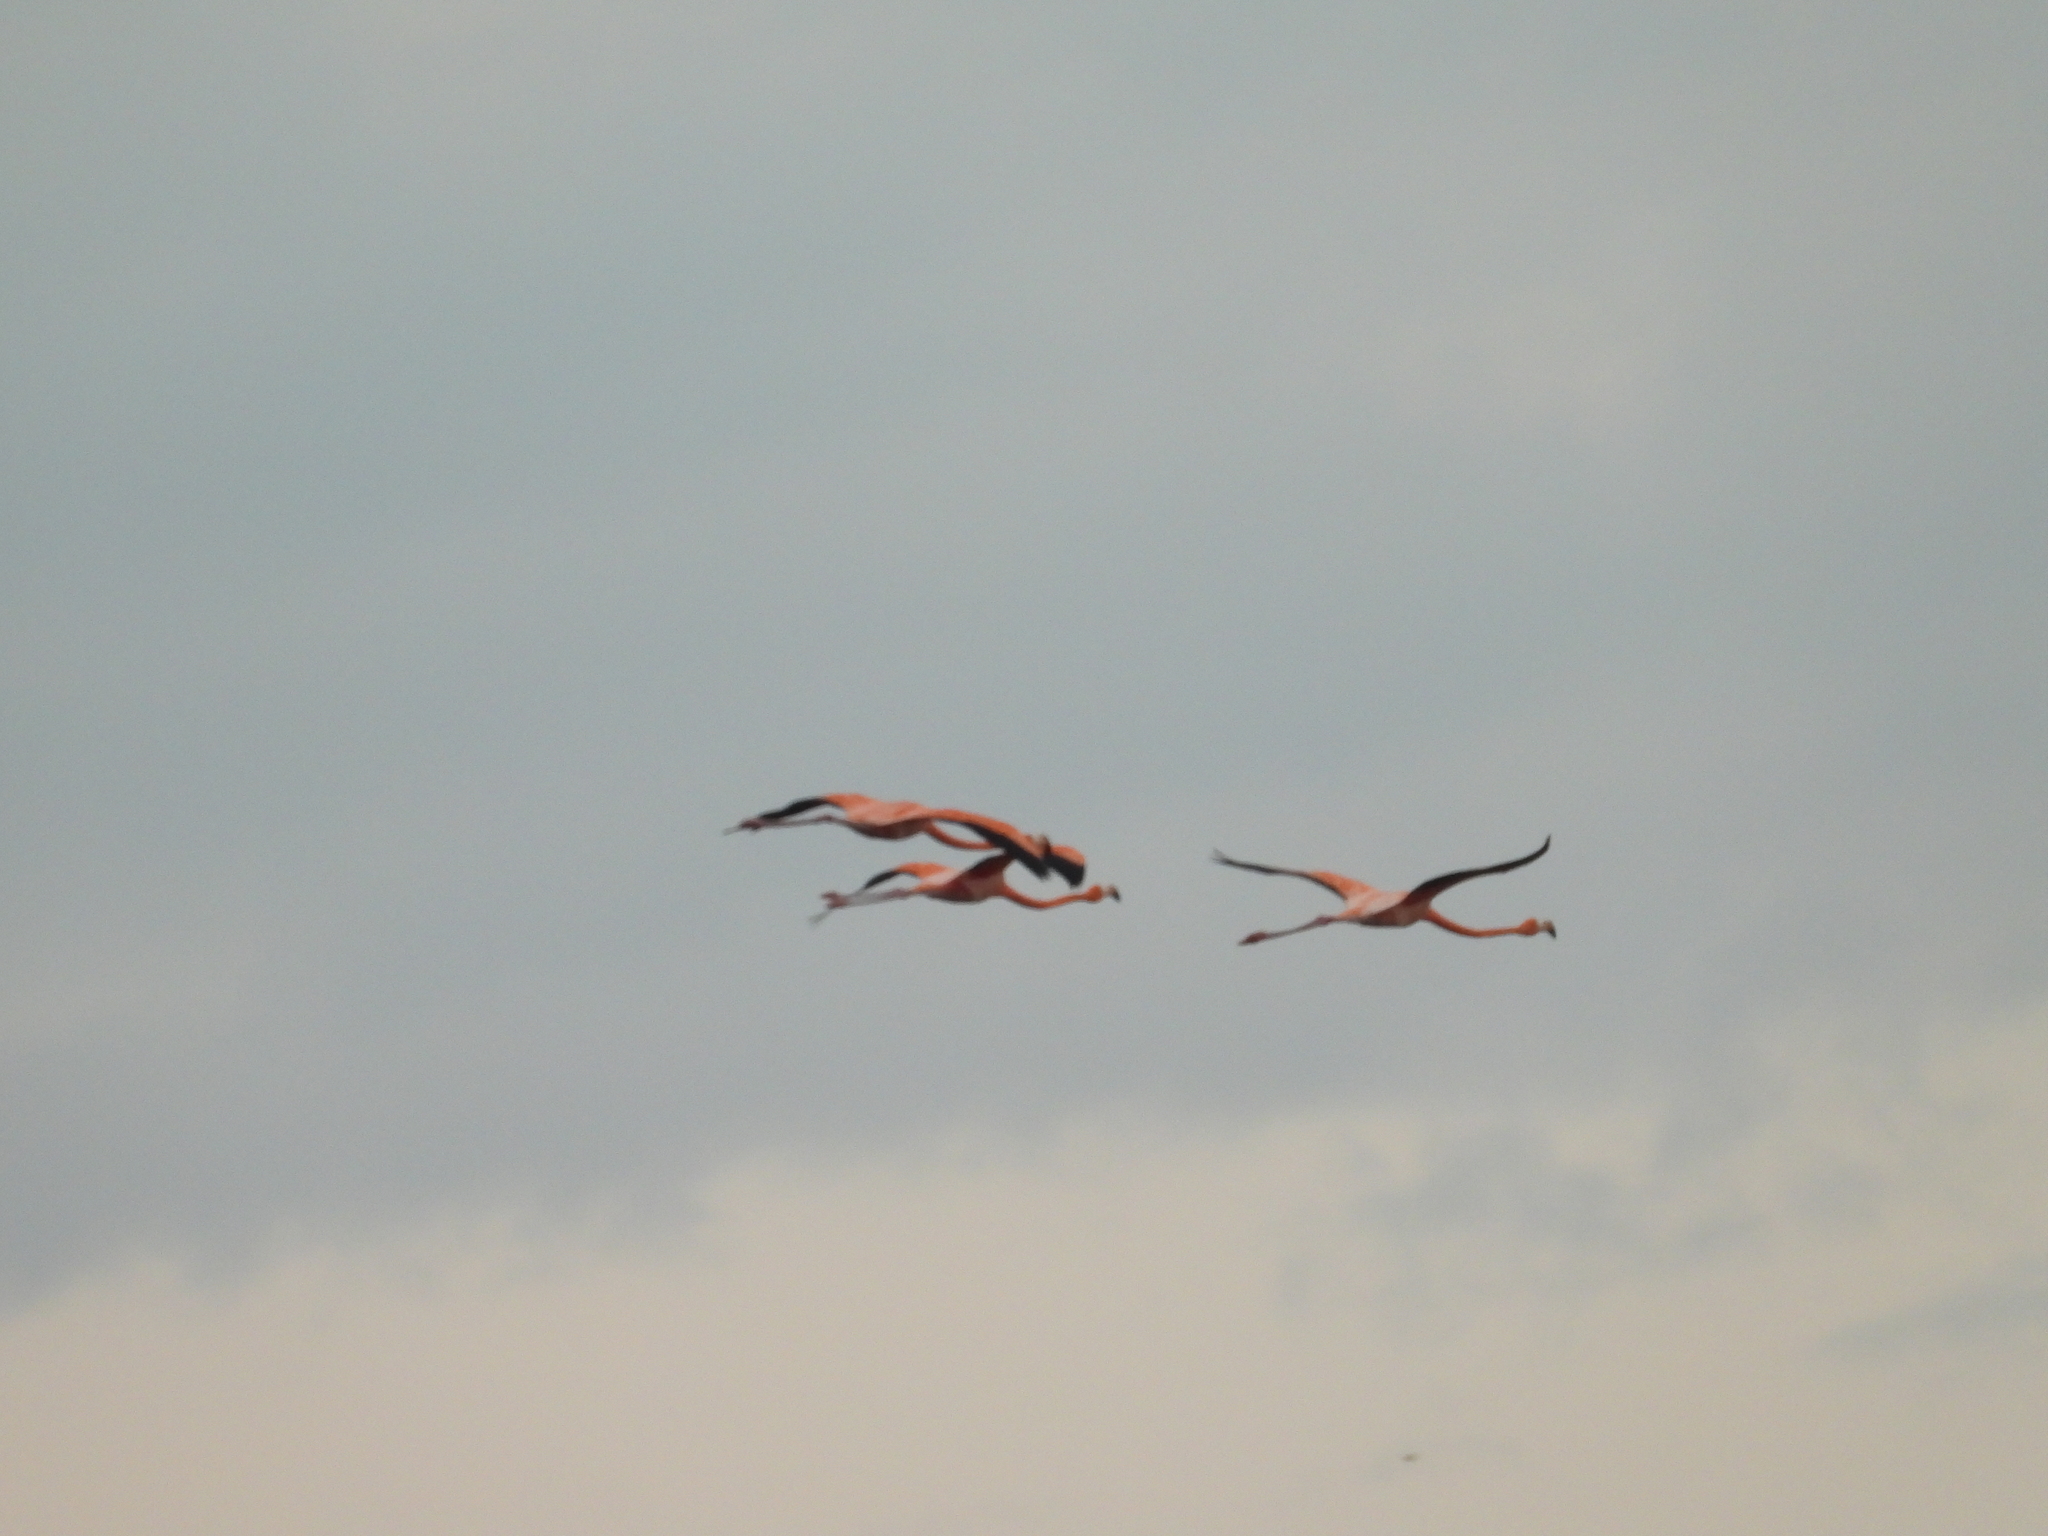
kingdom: Animalia
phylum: Chordata
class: Aves
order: Phoenicopteriformes
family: Phoenicopteridae
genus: Phoenicopterus
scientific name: Phoenicopterus ruber
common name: American flamingo
